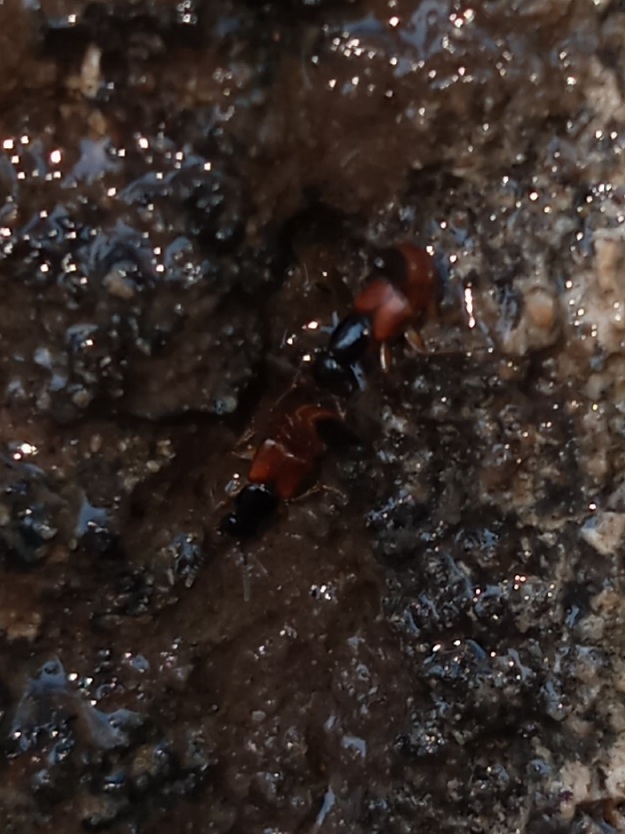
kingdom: Animalia
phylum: Arthropoda
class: Insecta
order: Coleoptera
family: Staphylinidae
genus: Hesperus
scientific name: Hesperus baltimorensis
